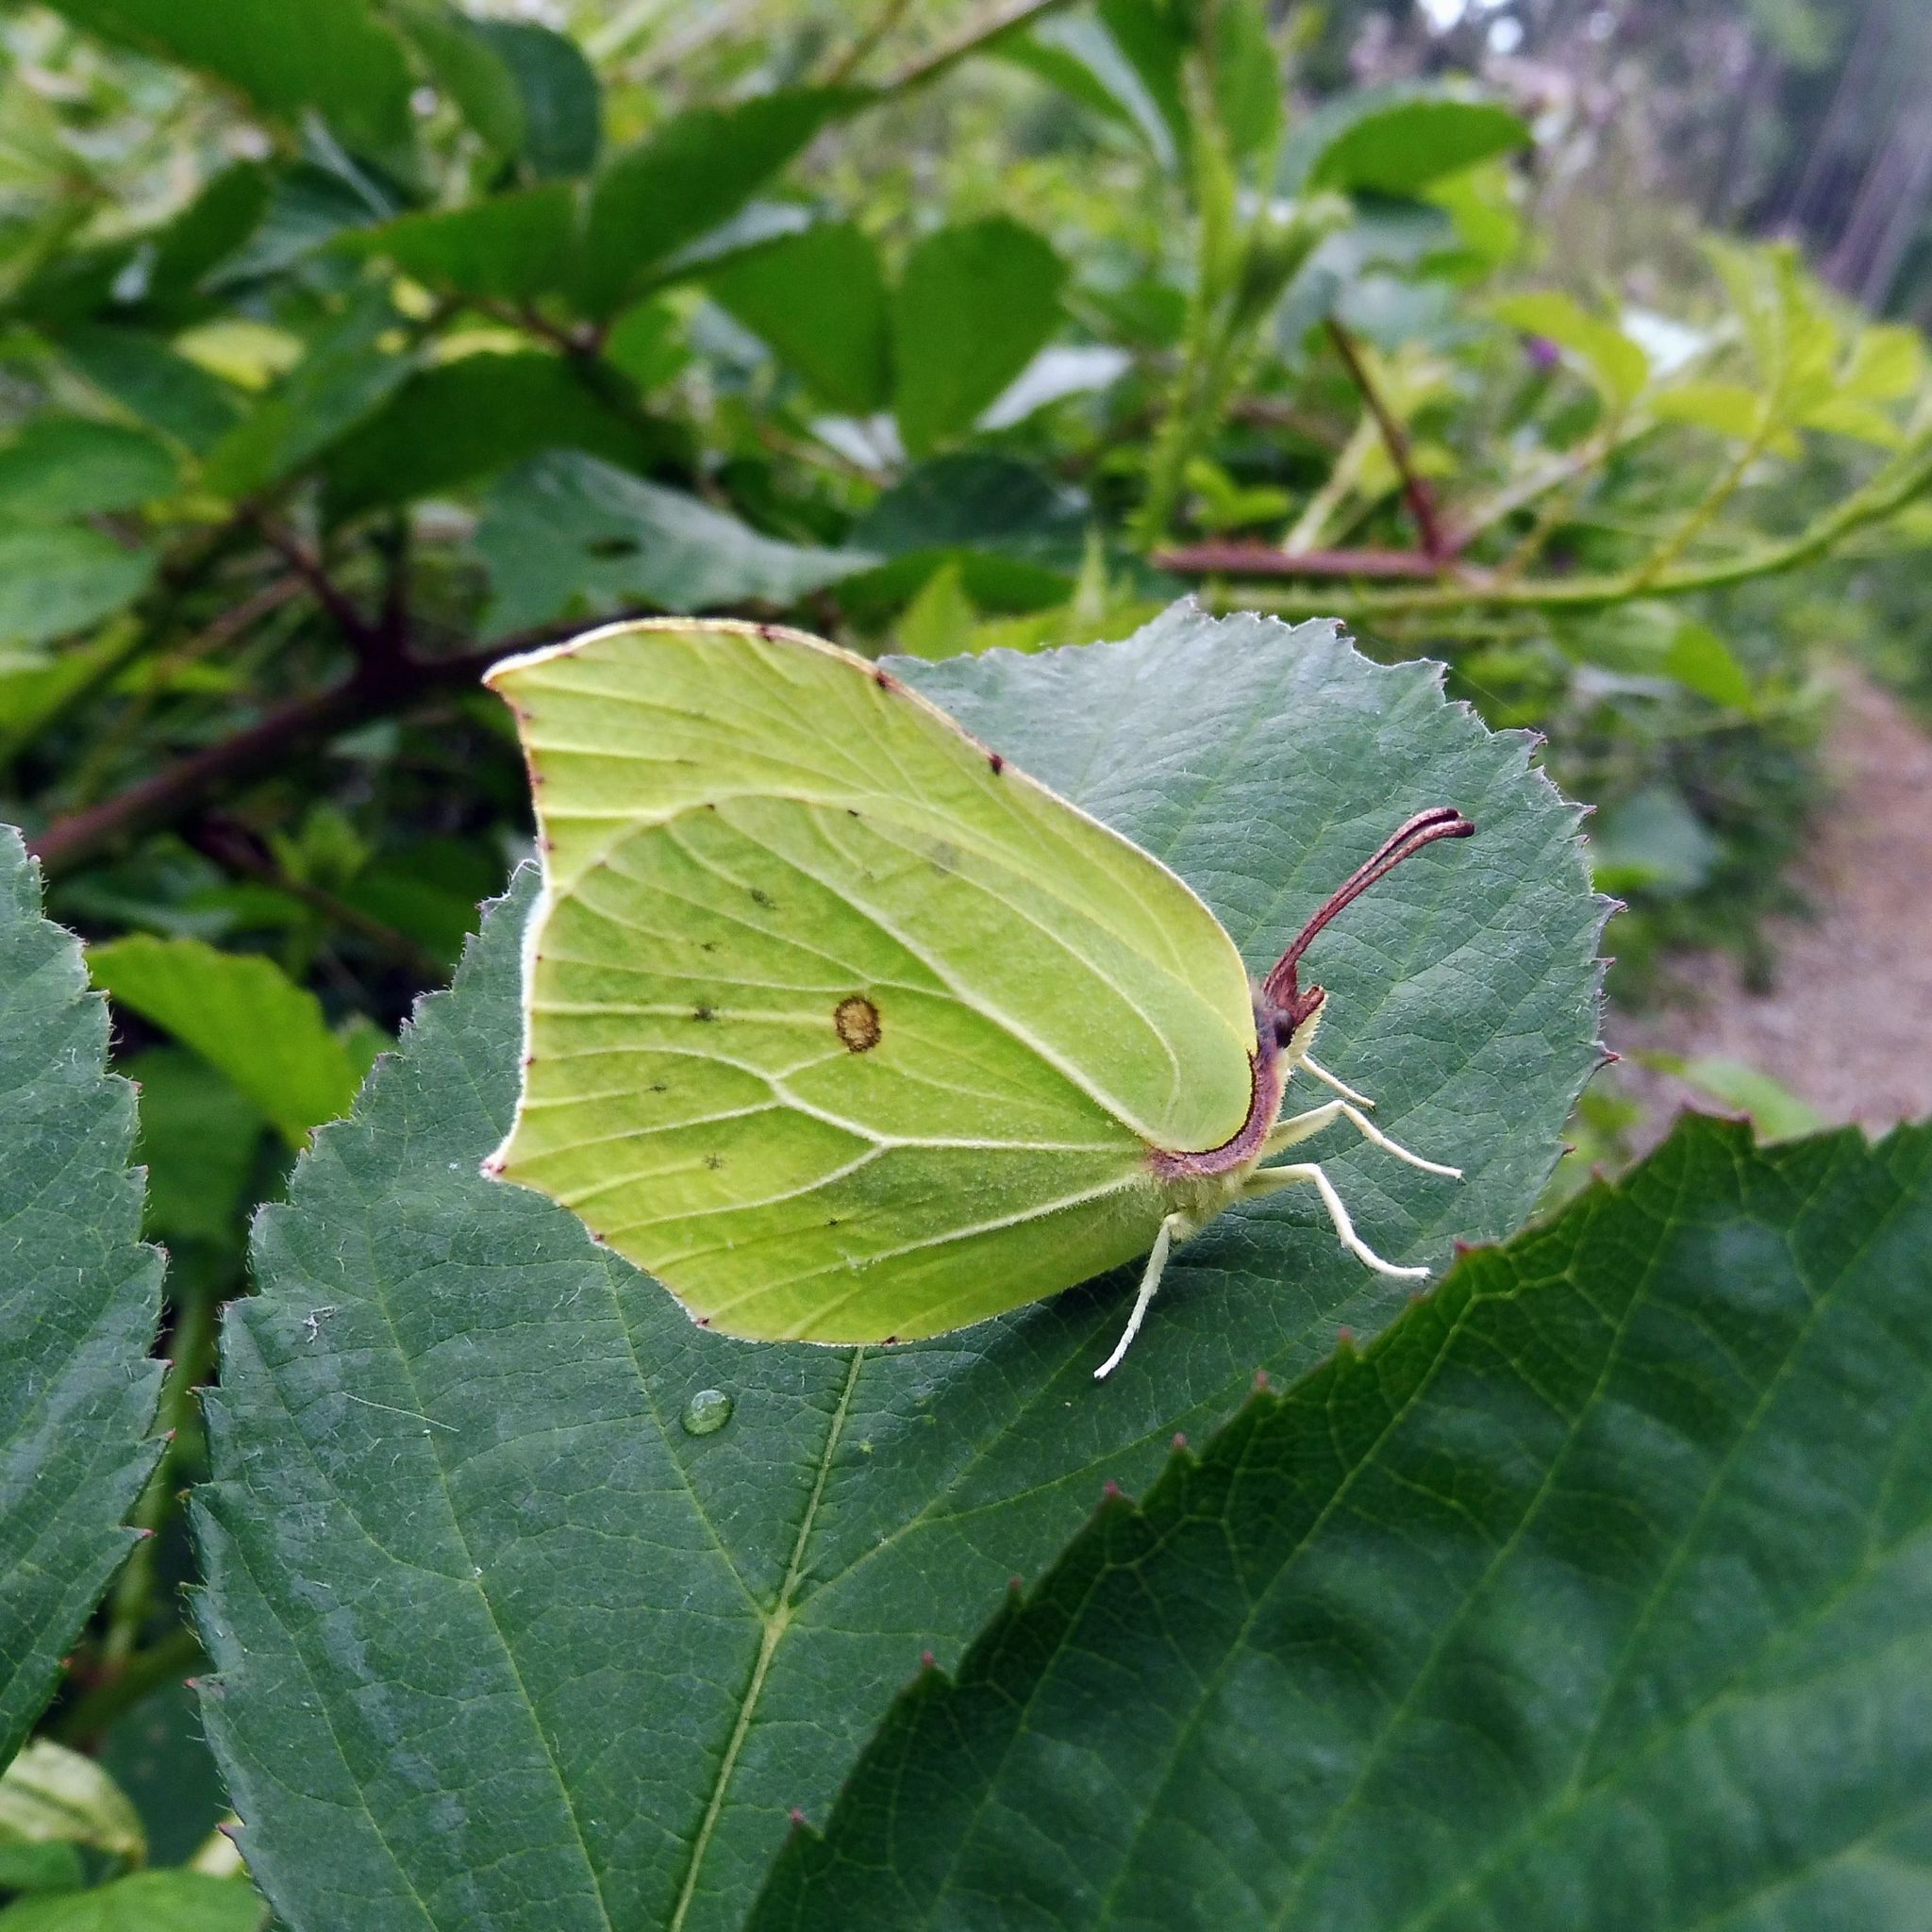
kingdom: Animalia
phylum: Arthropoda
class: Insecta
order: Lepidoptera
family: Pieridae
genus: Gonepteryx
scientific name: Gonepteryx rhamni
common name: Brimstone
